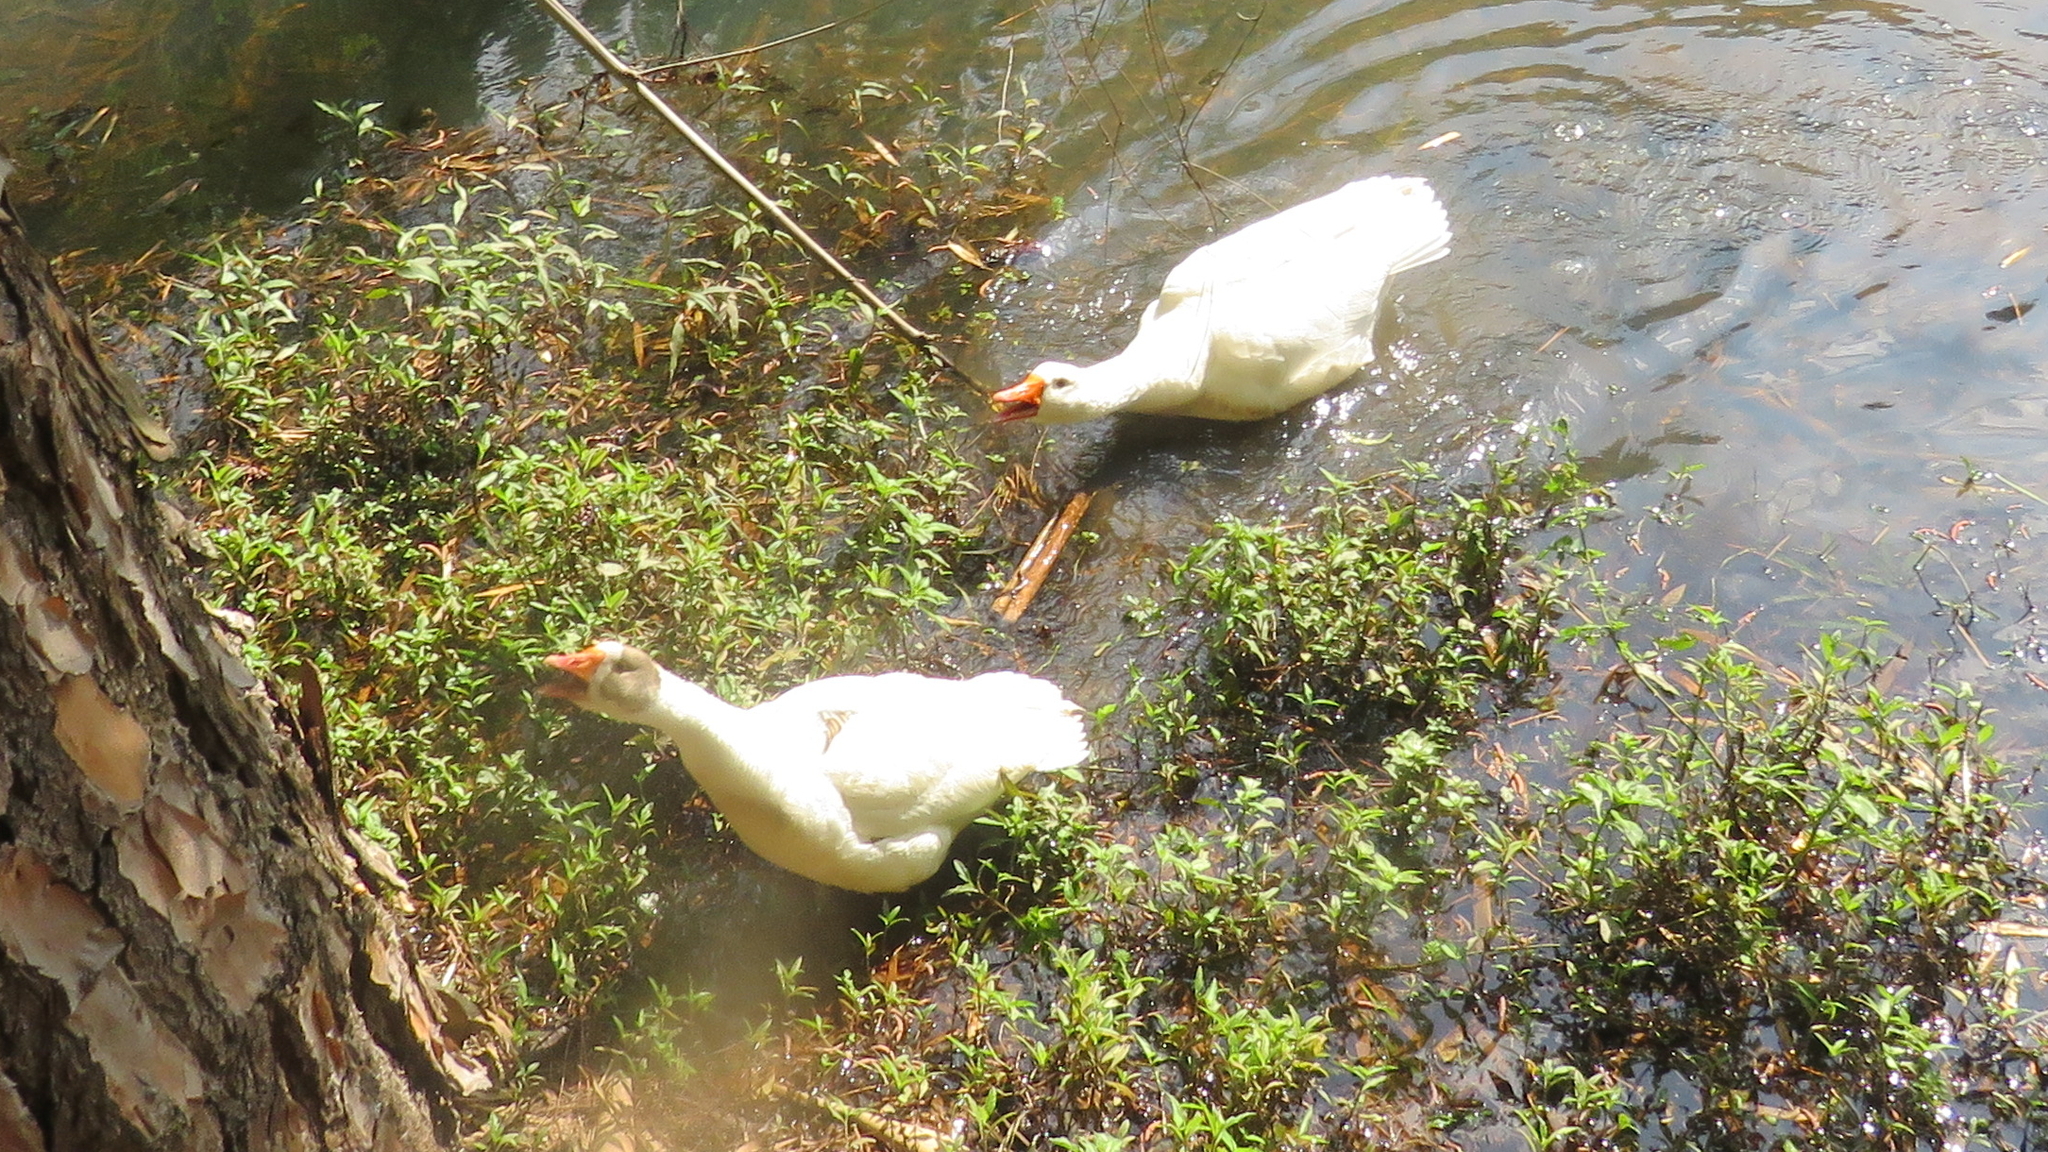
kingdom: Animalia
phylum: Chordata
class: Aves
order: Anseriformes
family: Anatidae
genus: Anser
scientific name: Anser
